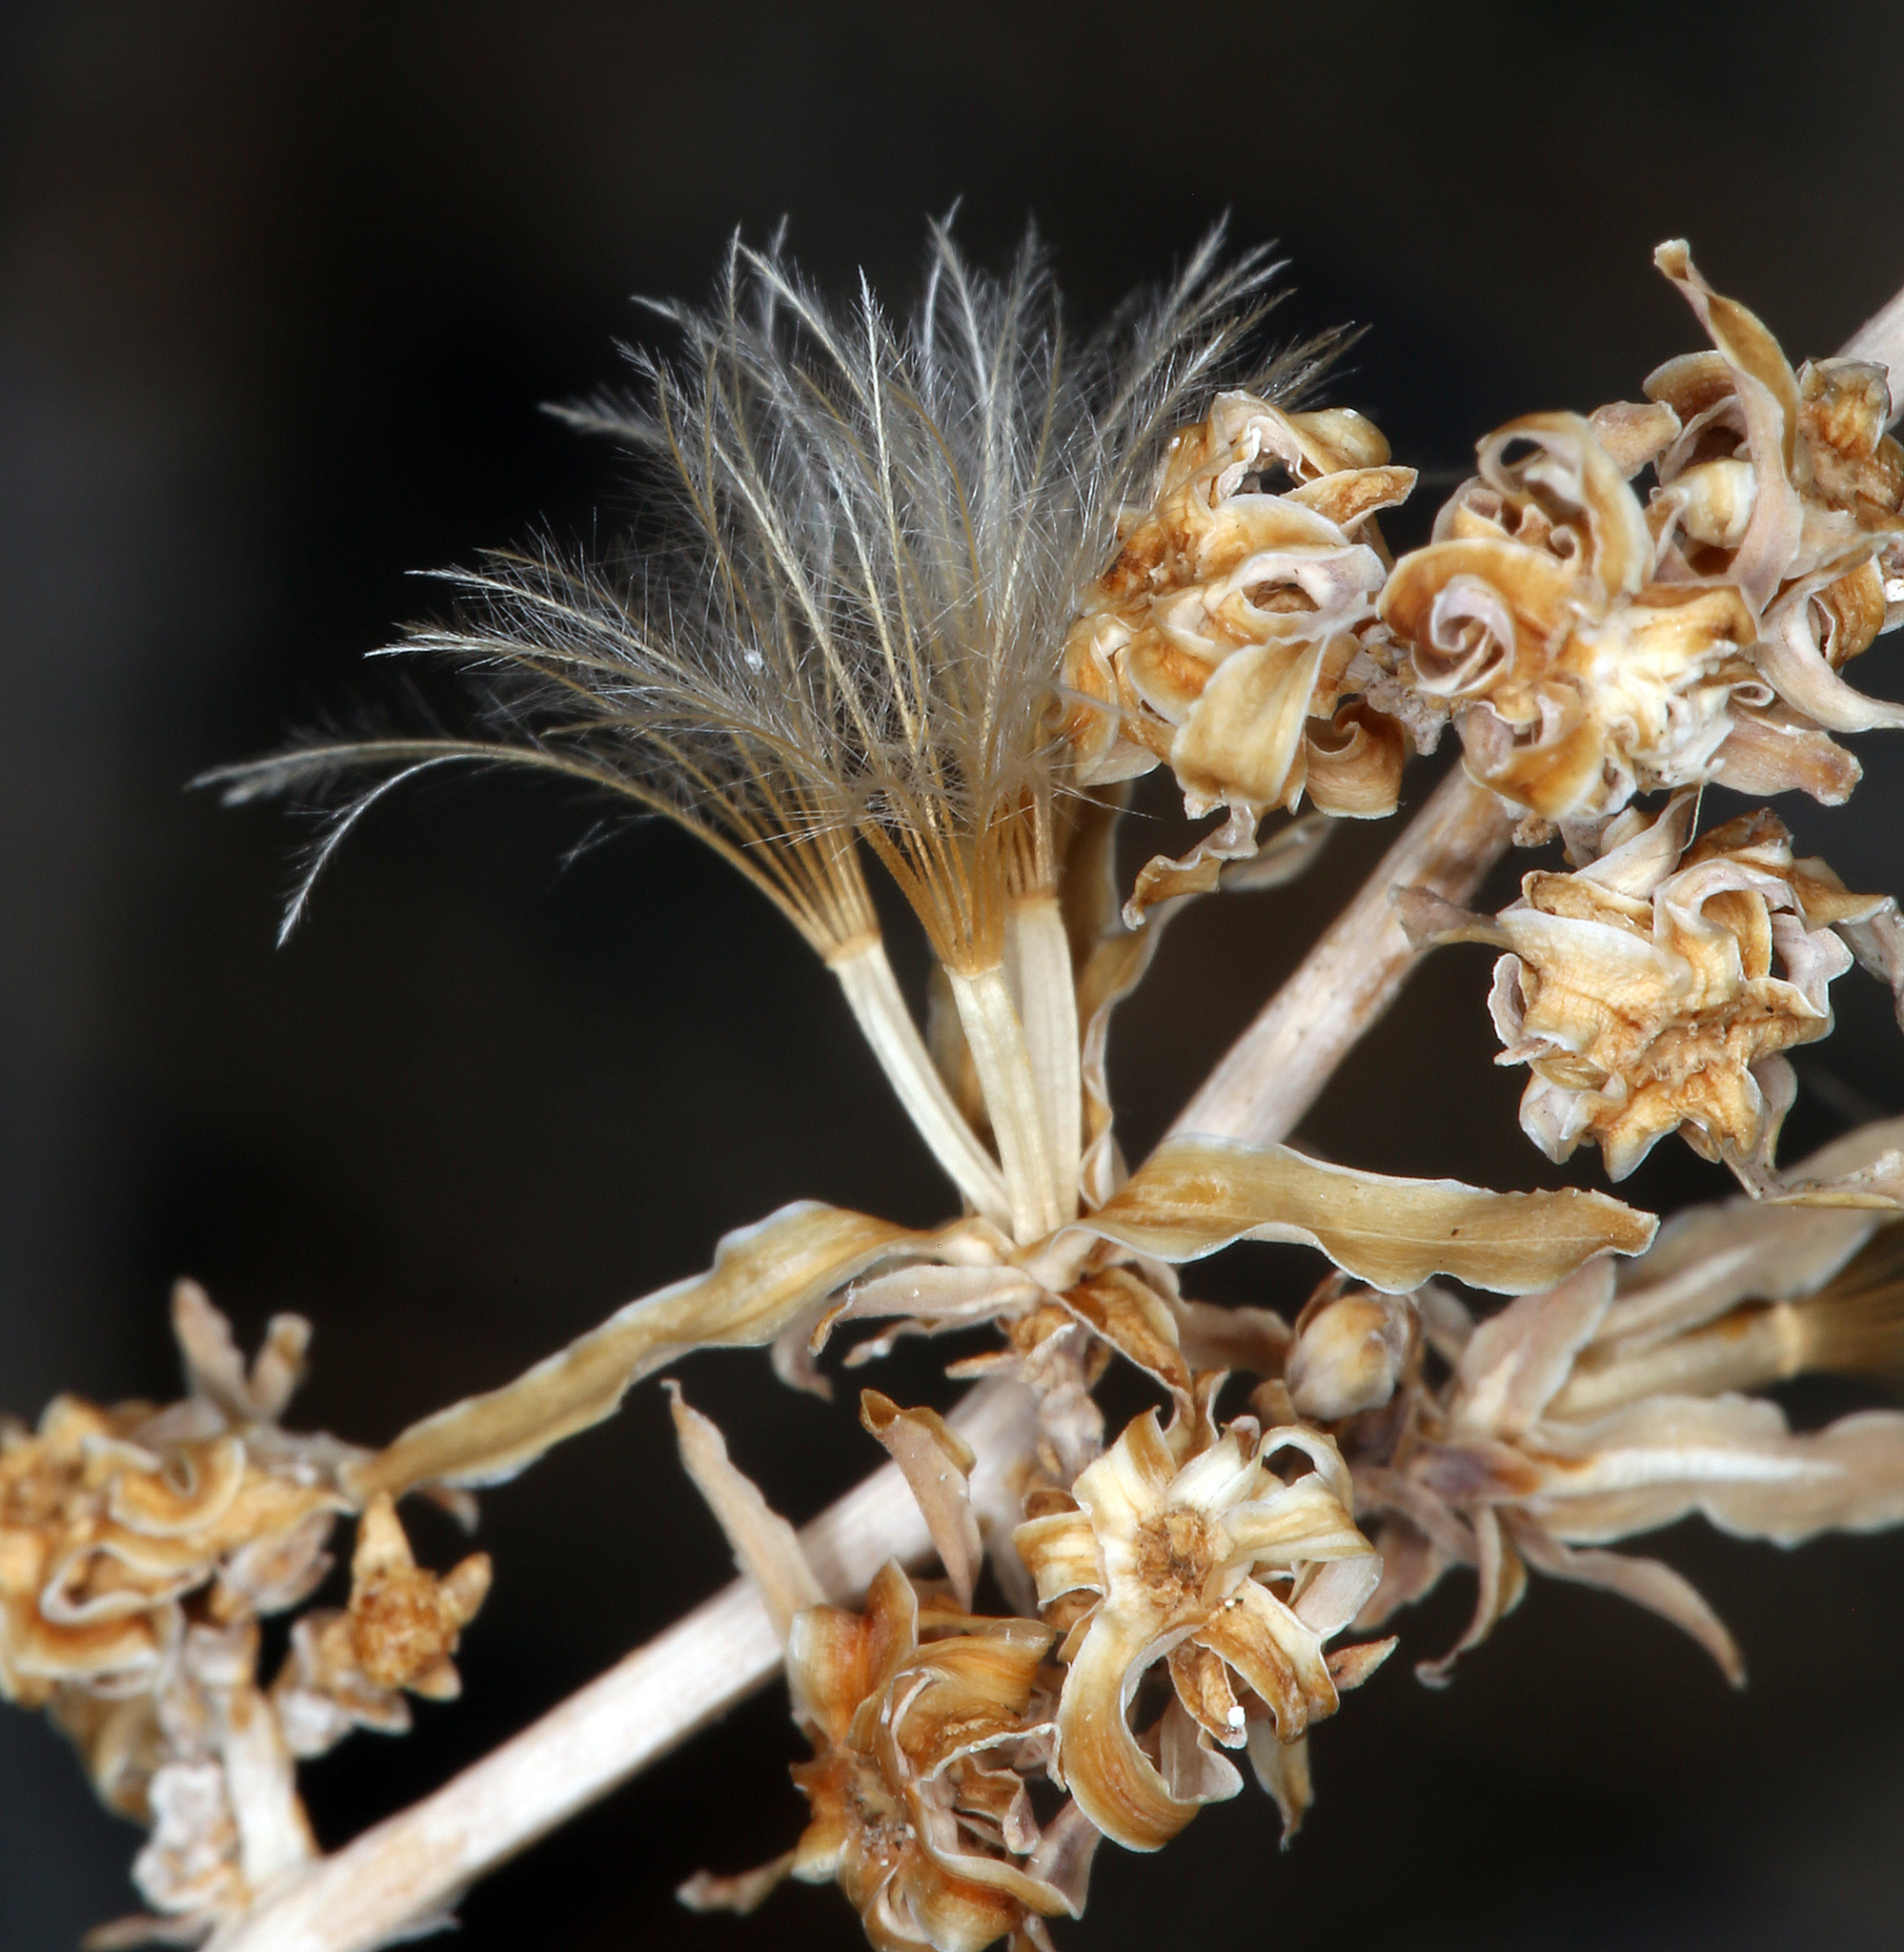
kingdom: Plantae
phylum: Tracheophyta
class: Magnoliopsida
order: Asterales
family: Asteraceae
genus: Stephanomeria
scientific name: Stephanomeria pauciflora
